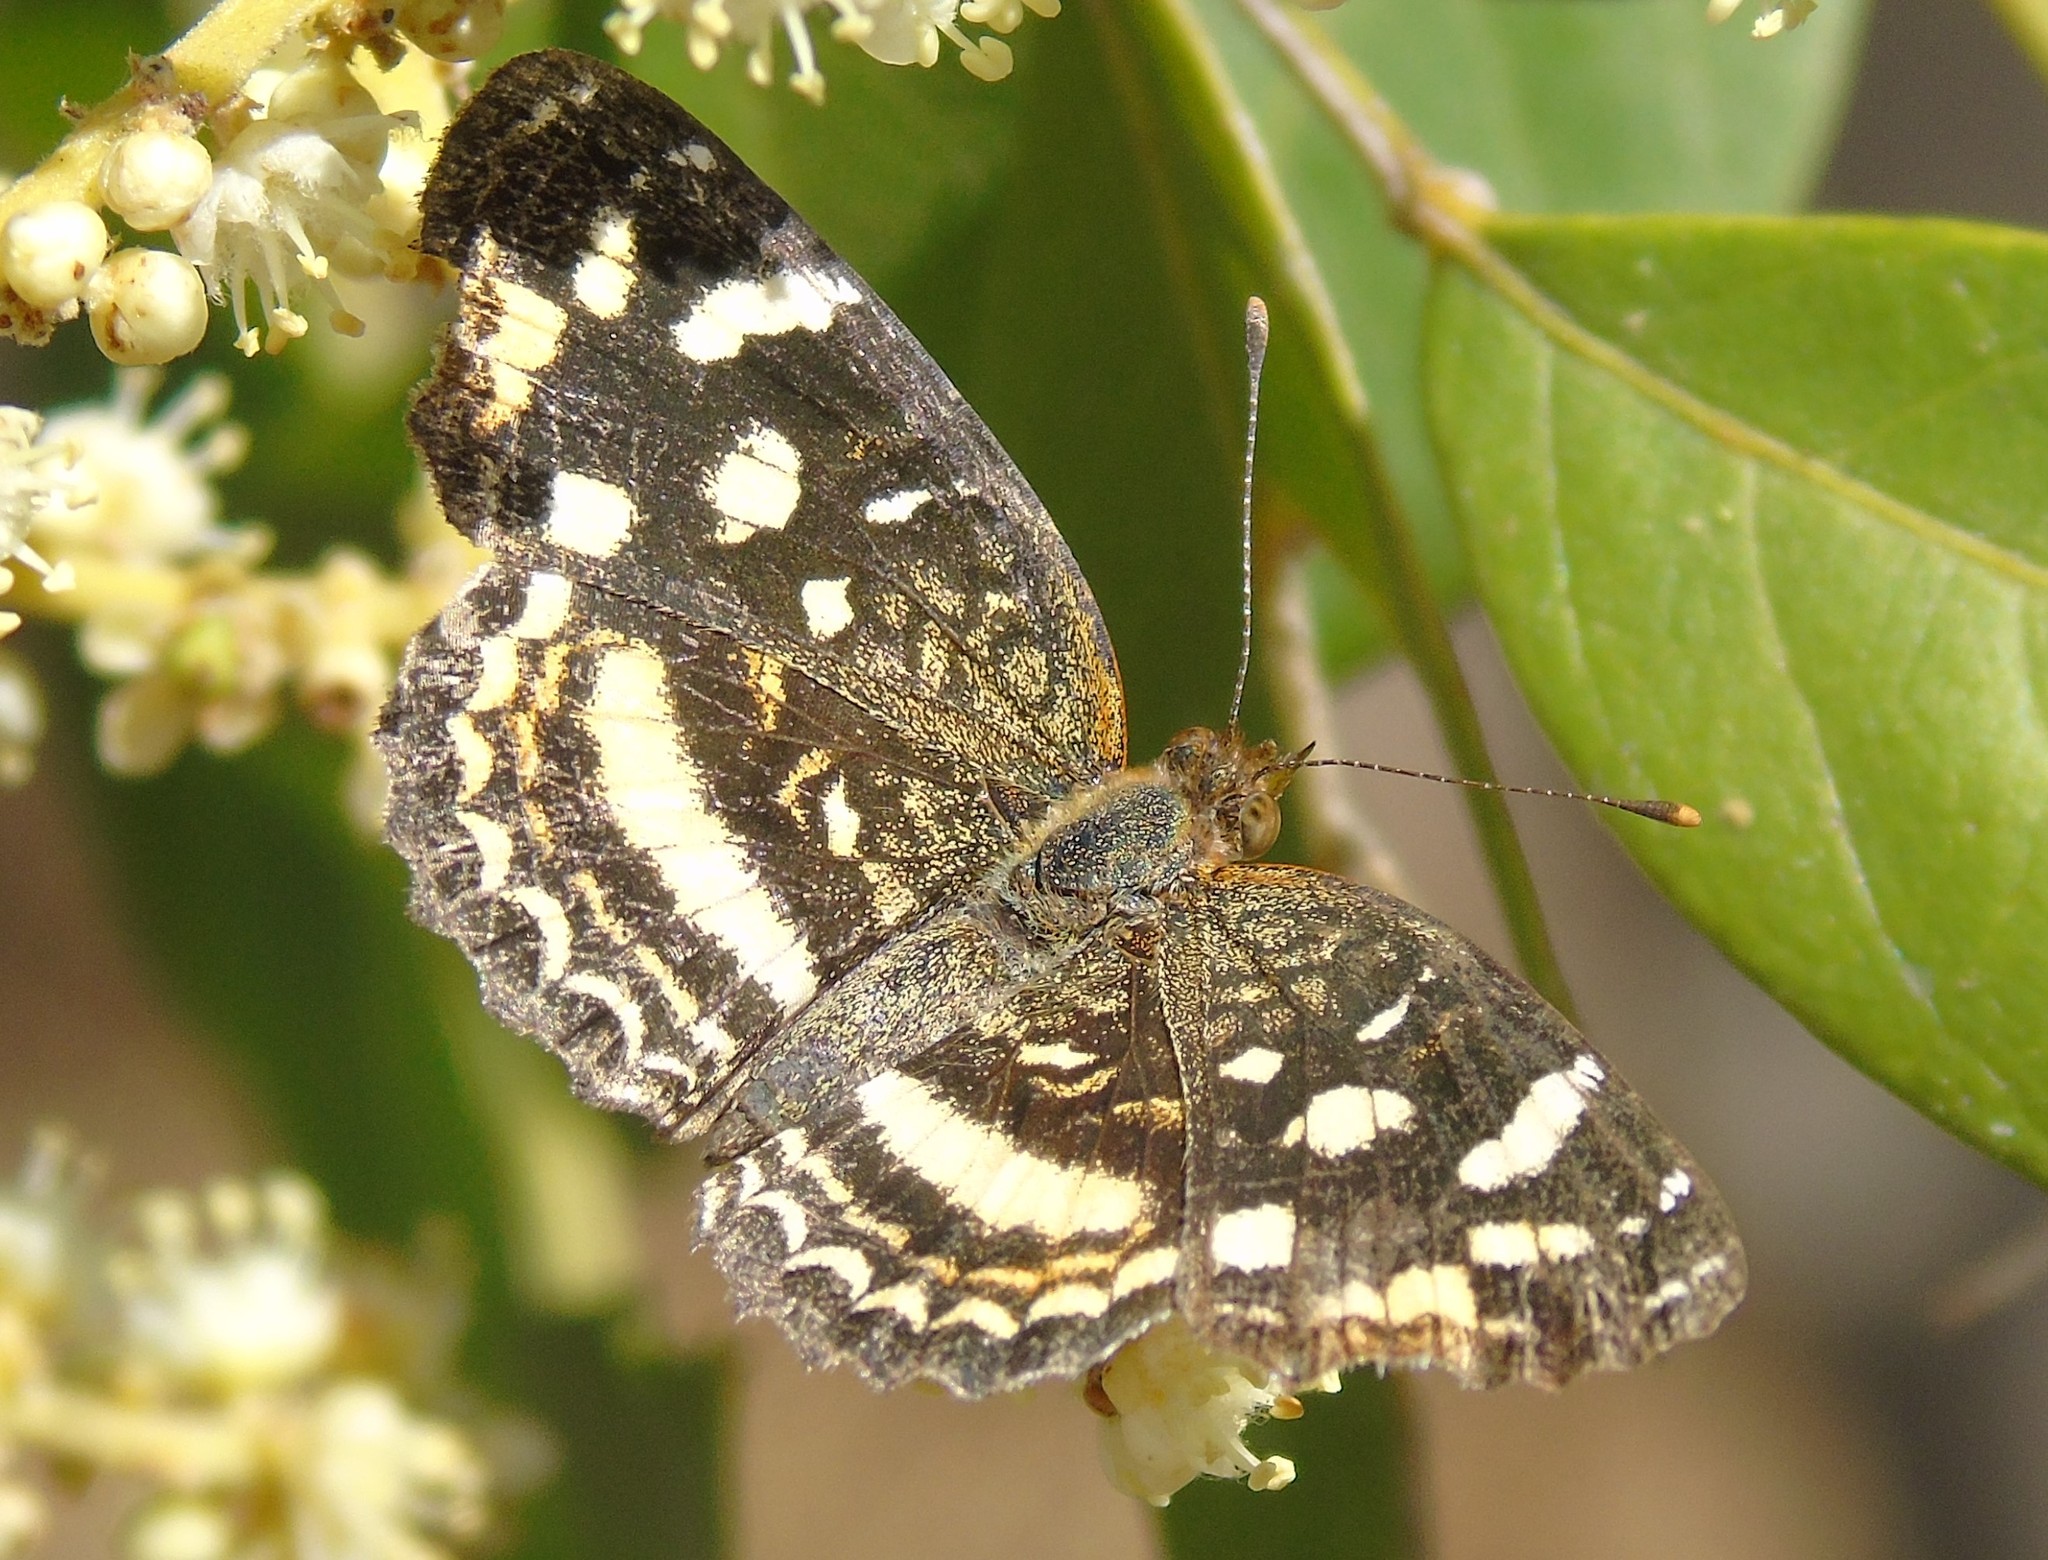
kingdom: Animalia
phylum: Arthropoda
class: Insecta
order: Lepidoptera
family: Nymphalidae
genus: Anthanassa
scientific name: Anthanassa tulcis
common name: Pale-banded crescent
